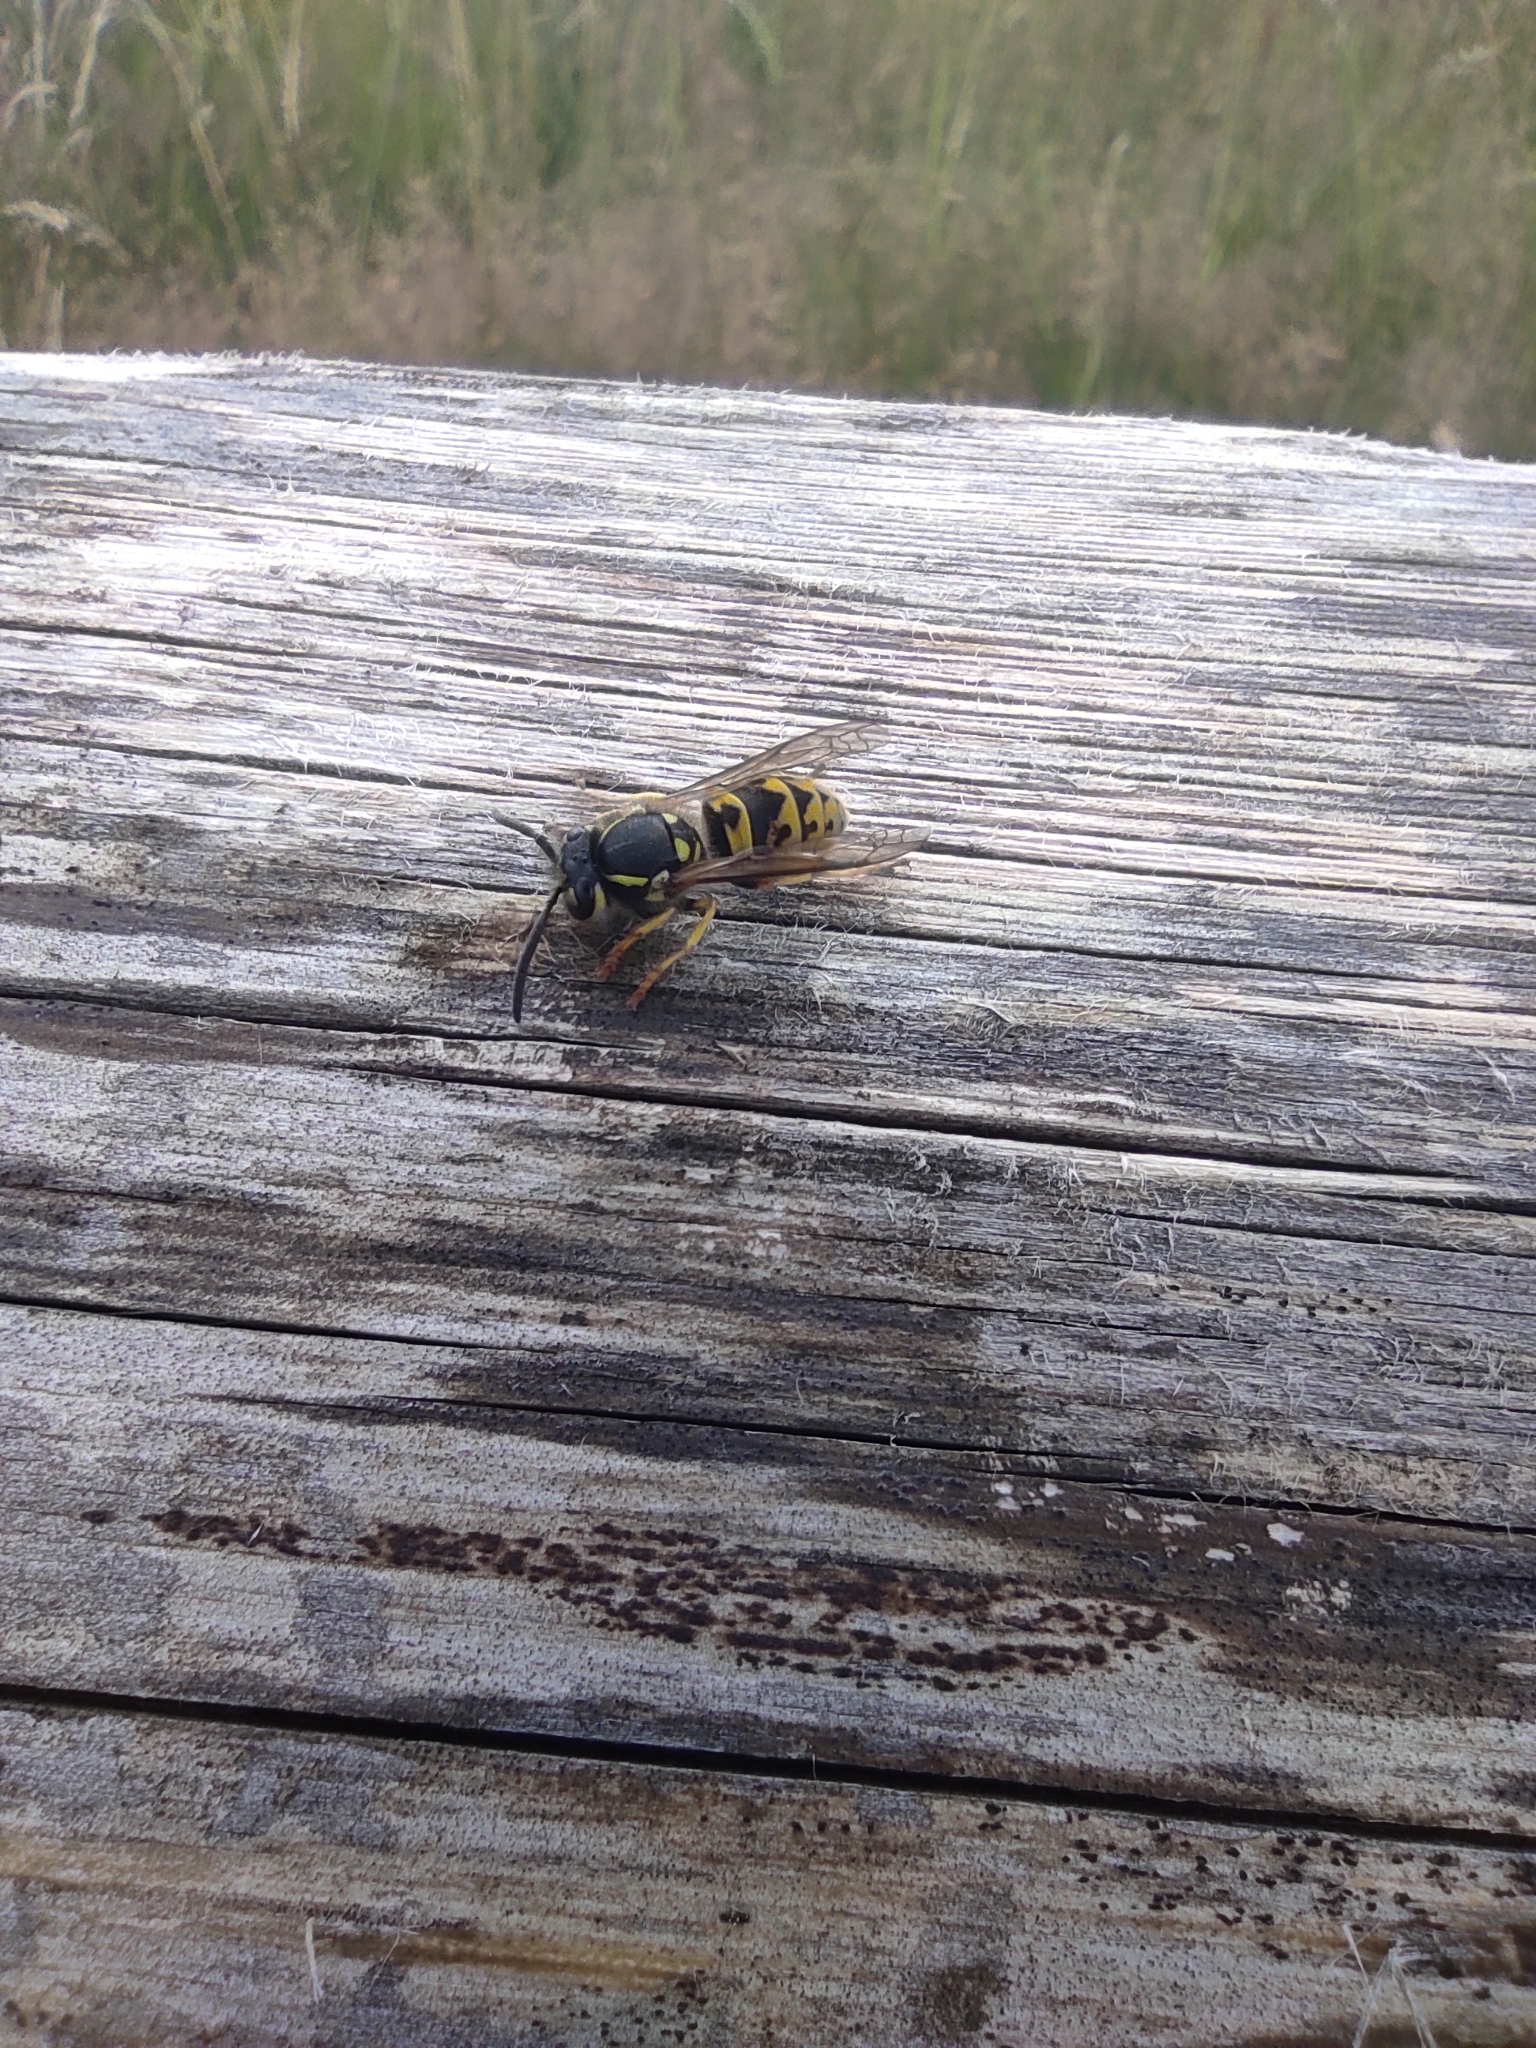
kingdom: Animalia
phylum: Arthropoda
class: Insecta
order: Hymenoptera
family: Vespidae
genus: Vespula
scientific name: Vespula germanica
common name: German wasp
